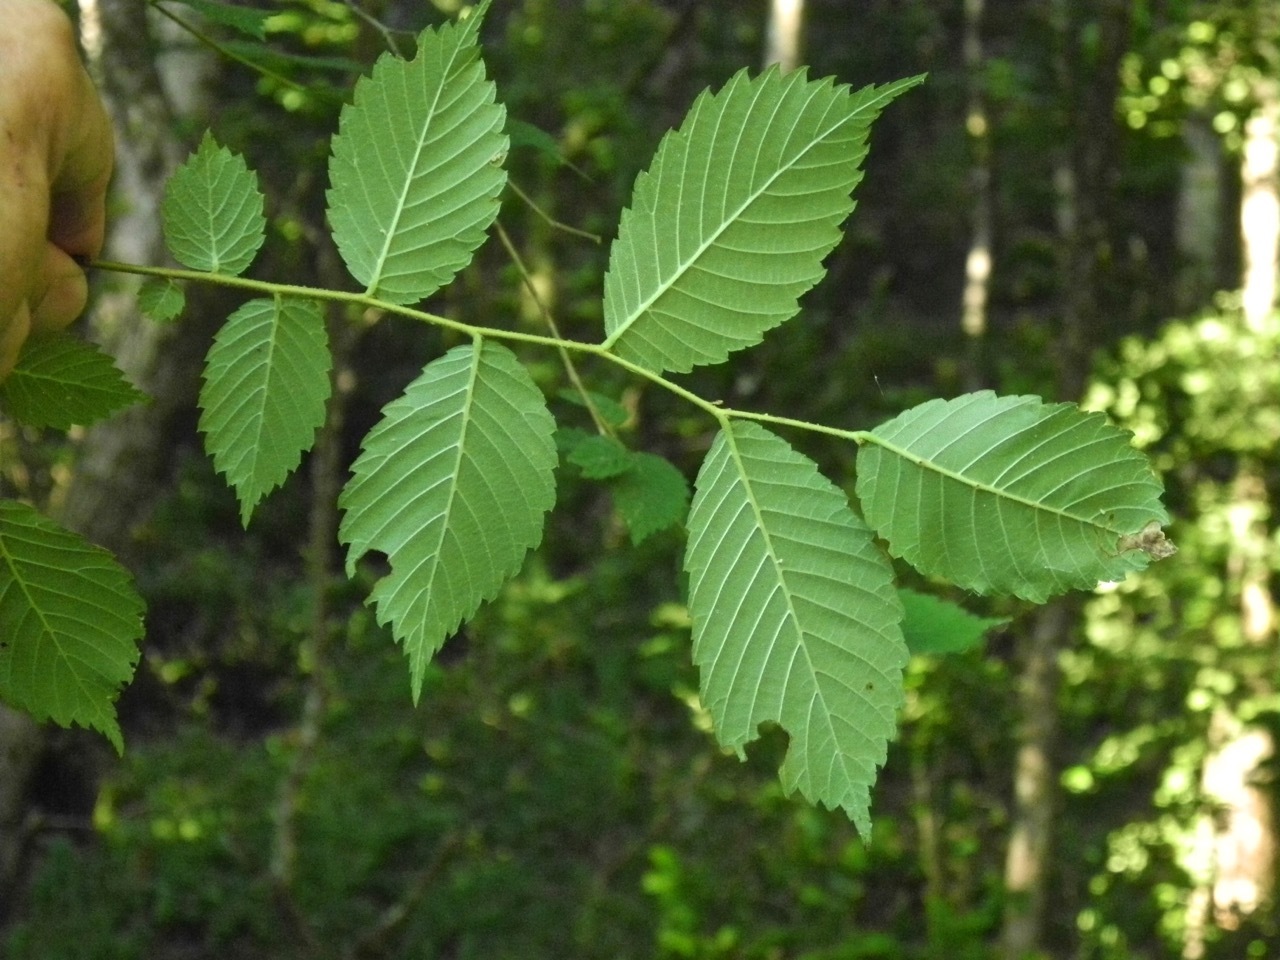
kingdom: Plantae
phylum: Tracheophyta
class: Magnoliopsida
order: Rosales
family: Ulmaceae
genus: Ulmus
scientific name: Ulmus rubra
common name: Slippery elm
